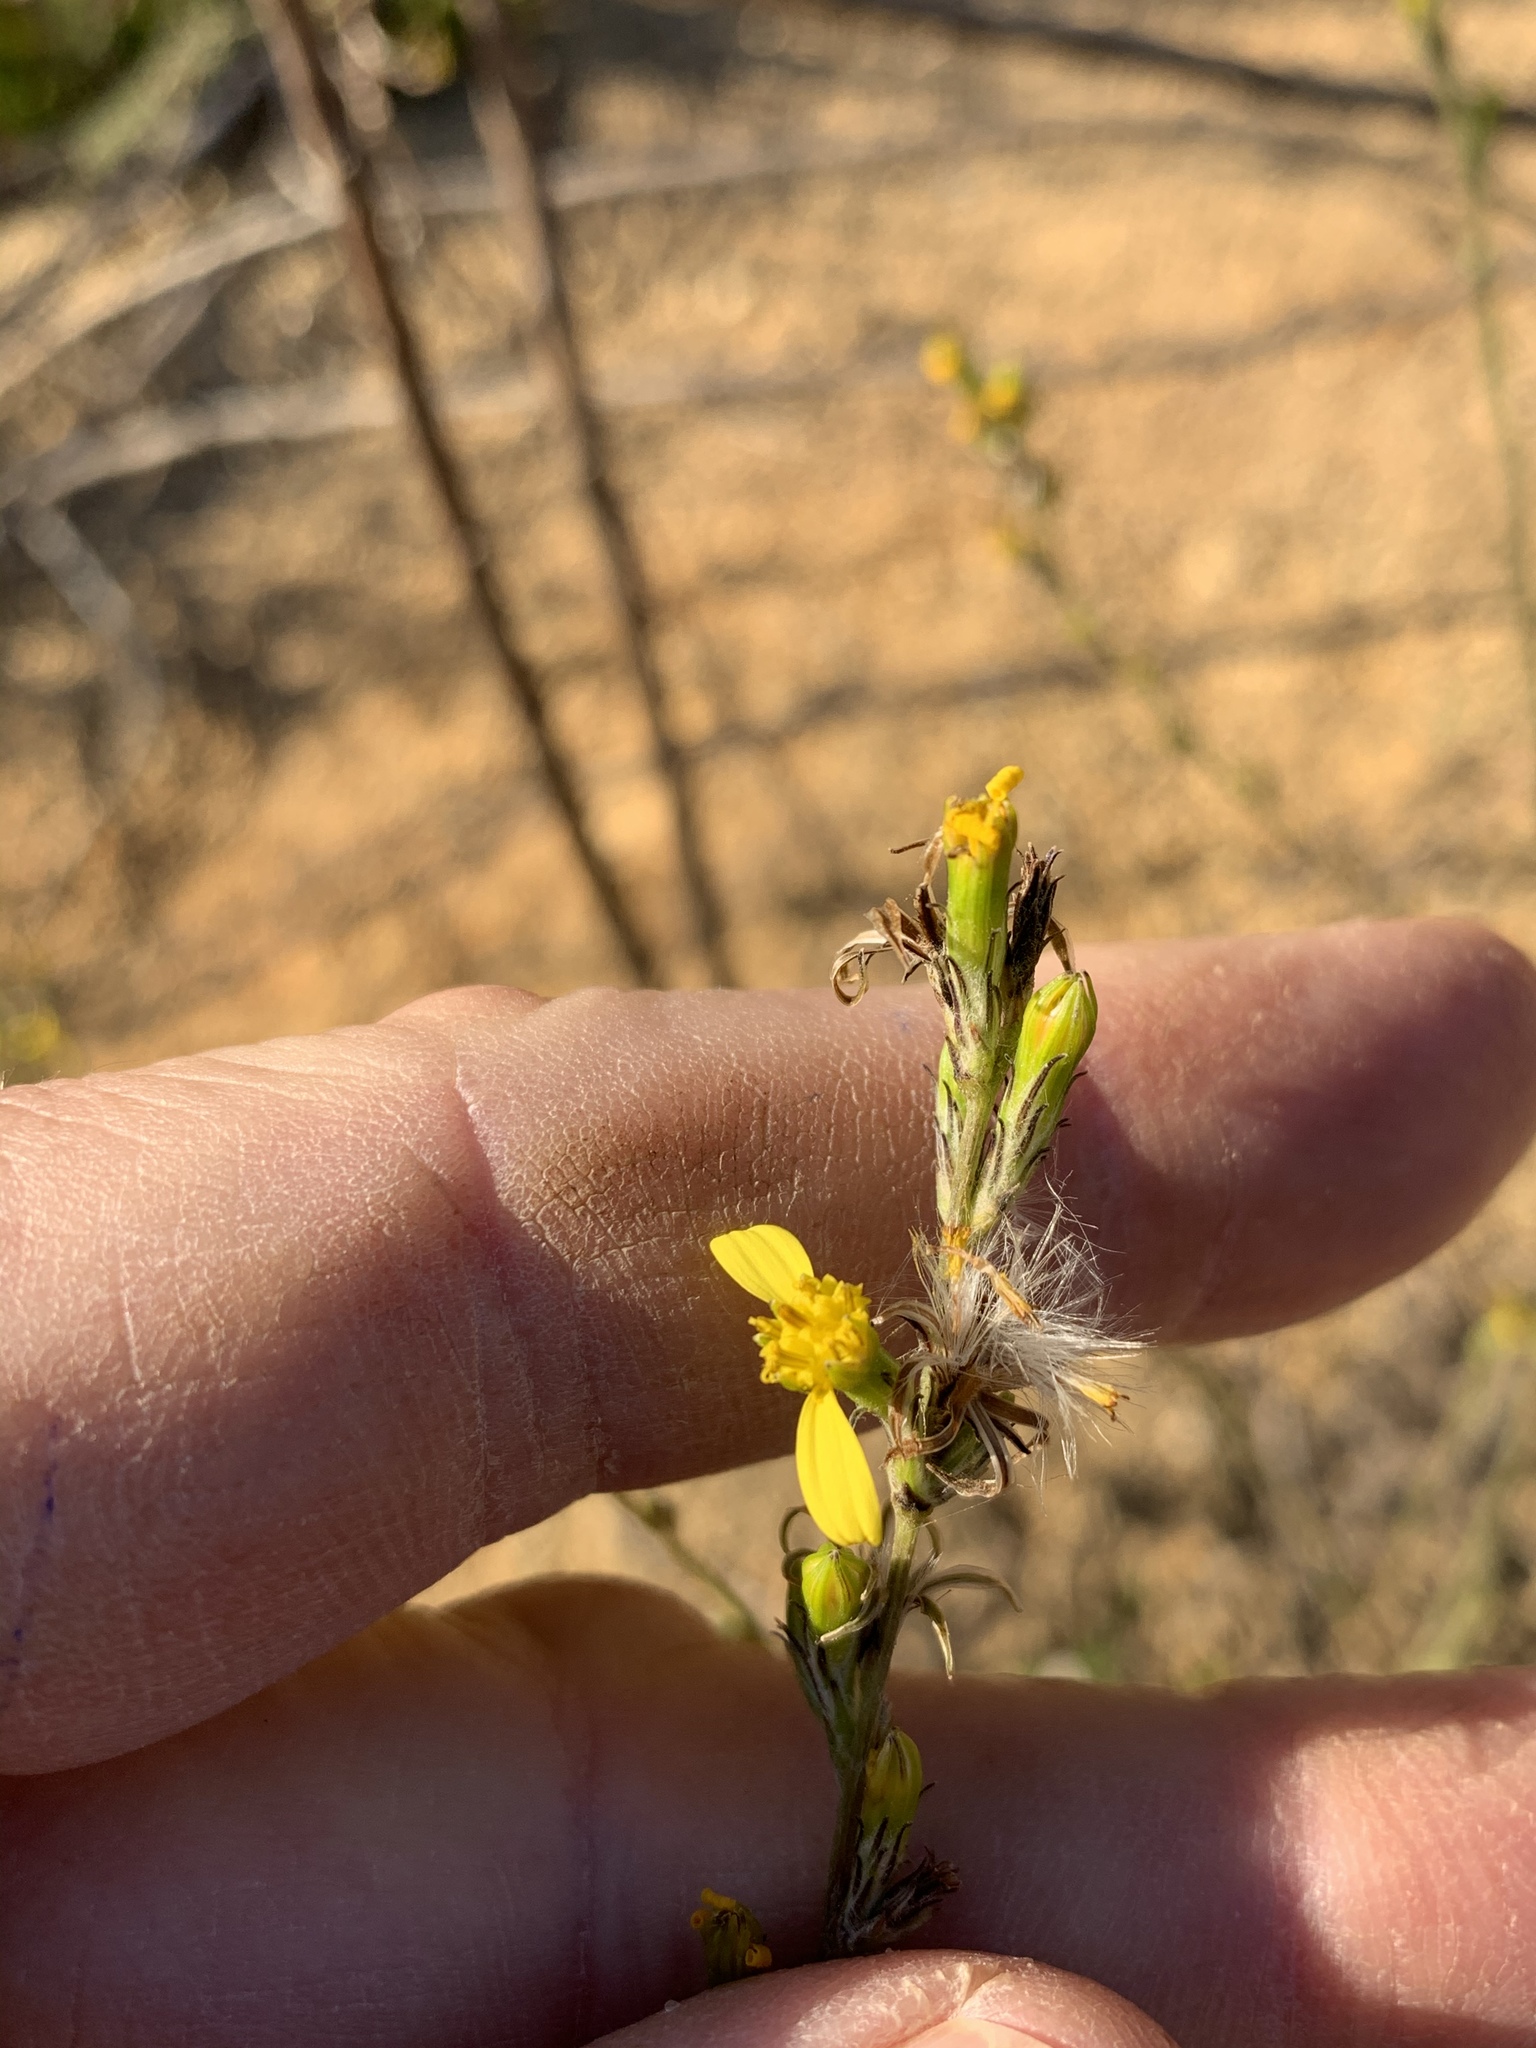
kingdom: Plantae
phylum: Tracheophyta
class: Magnoliopsida
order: Asterales
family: Asteraceae
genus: Senecio
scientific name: Senecio pubigerus
